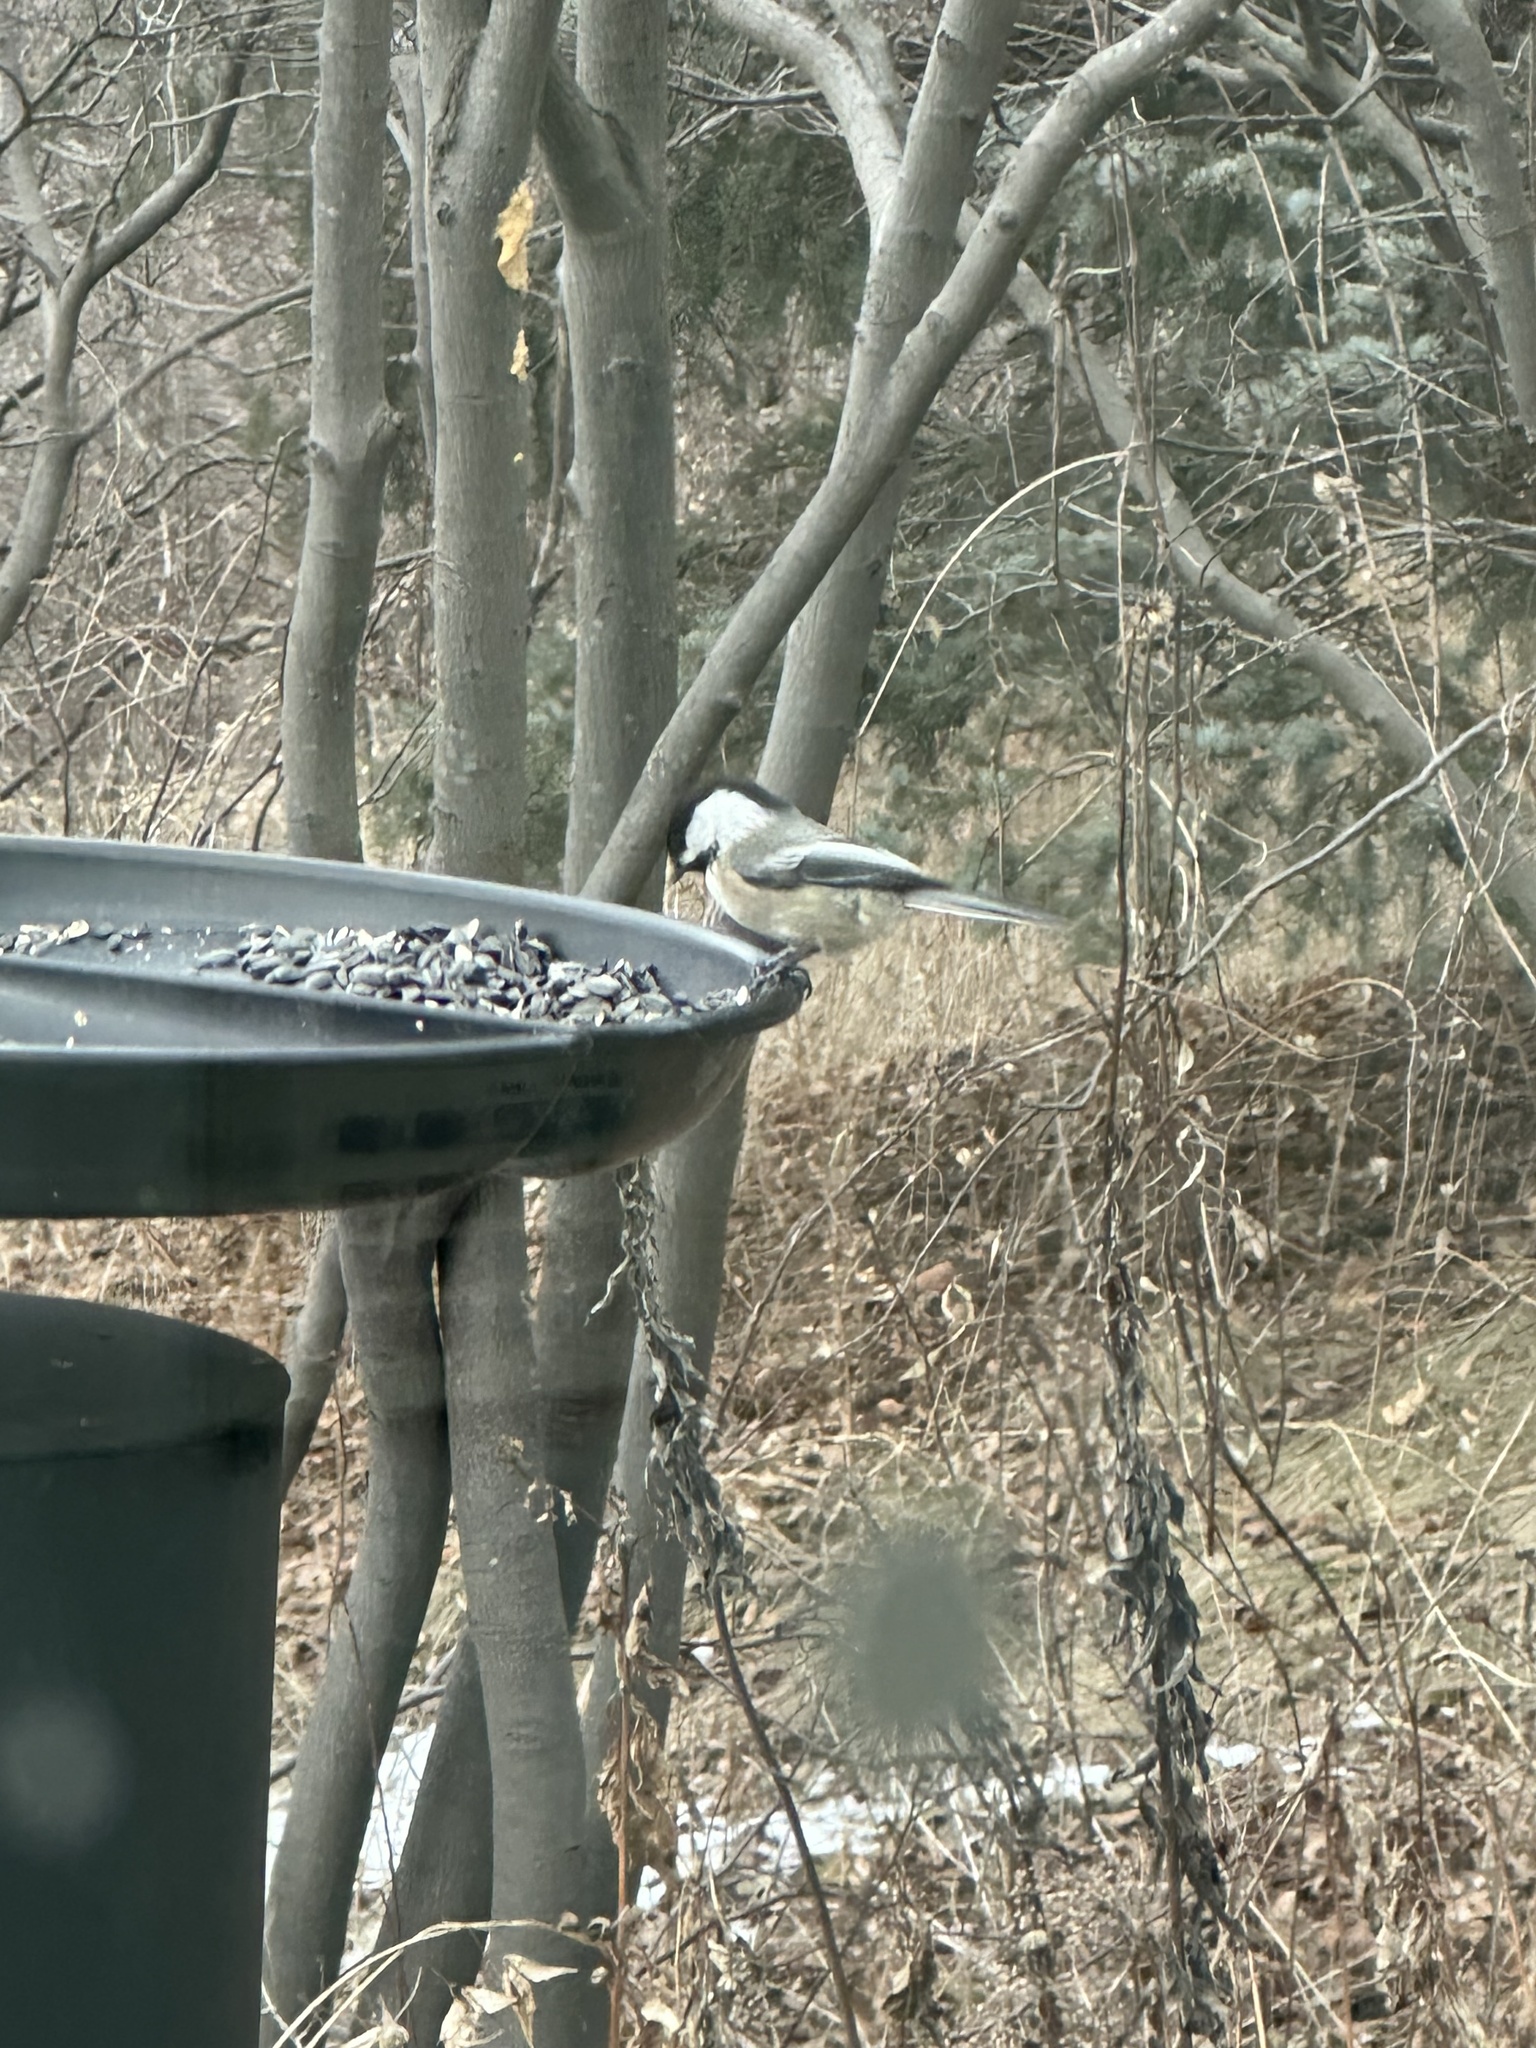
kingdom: Animalia
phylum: Chordata
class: Aves
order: Passeriformes
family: Paridae
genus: Poecile
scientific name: Poecile atricapillus
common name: Black-capped chickadee
